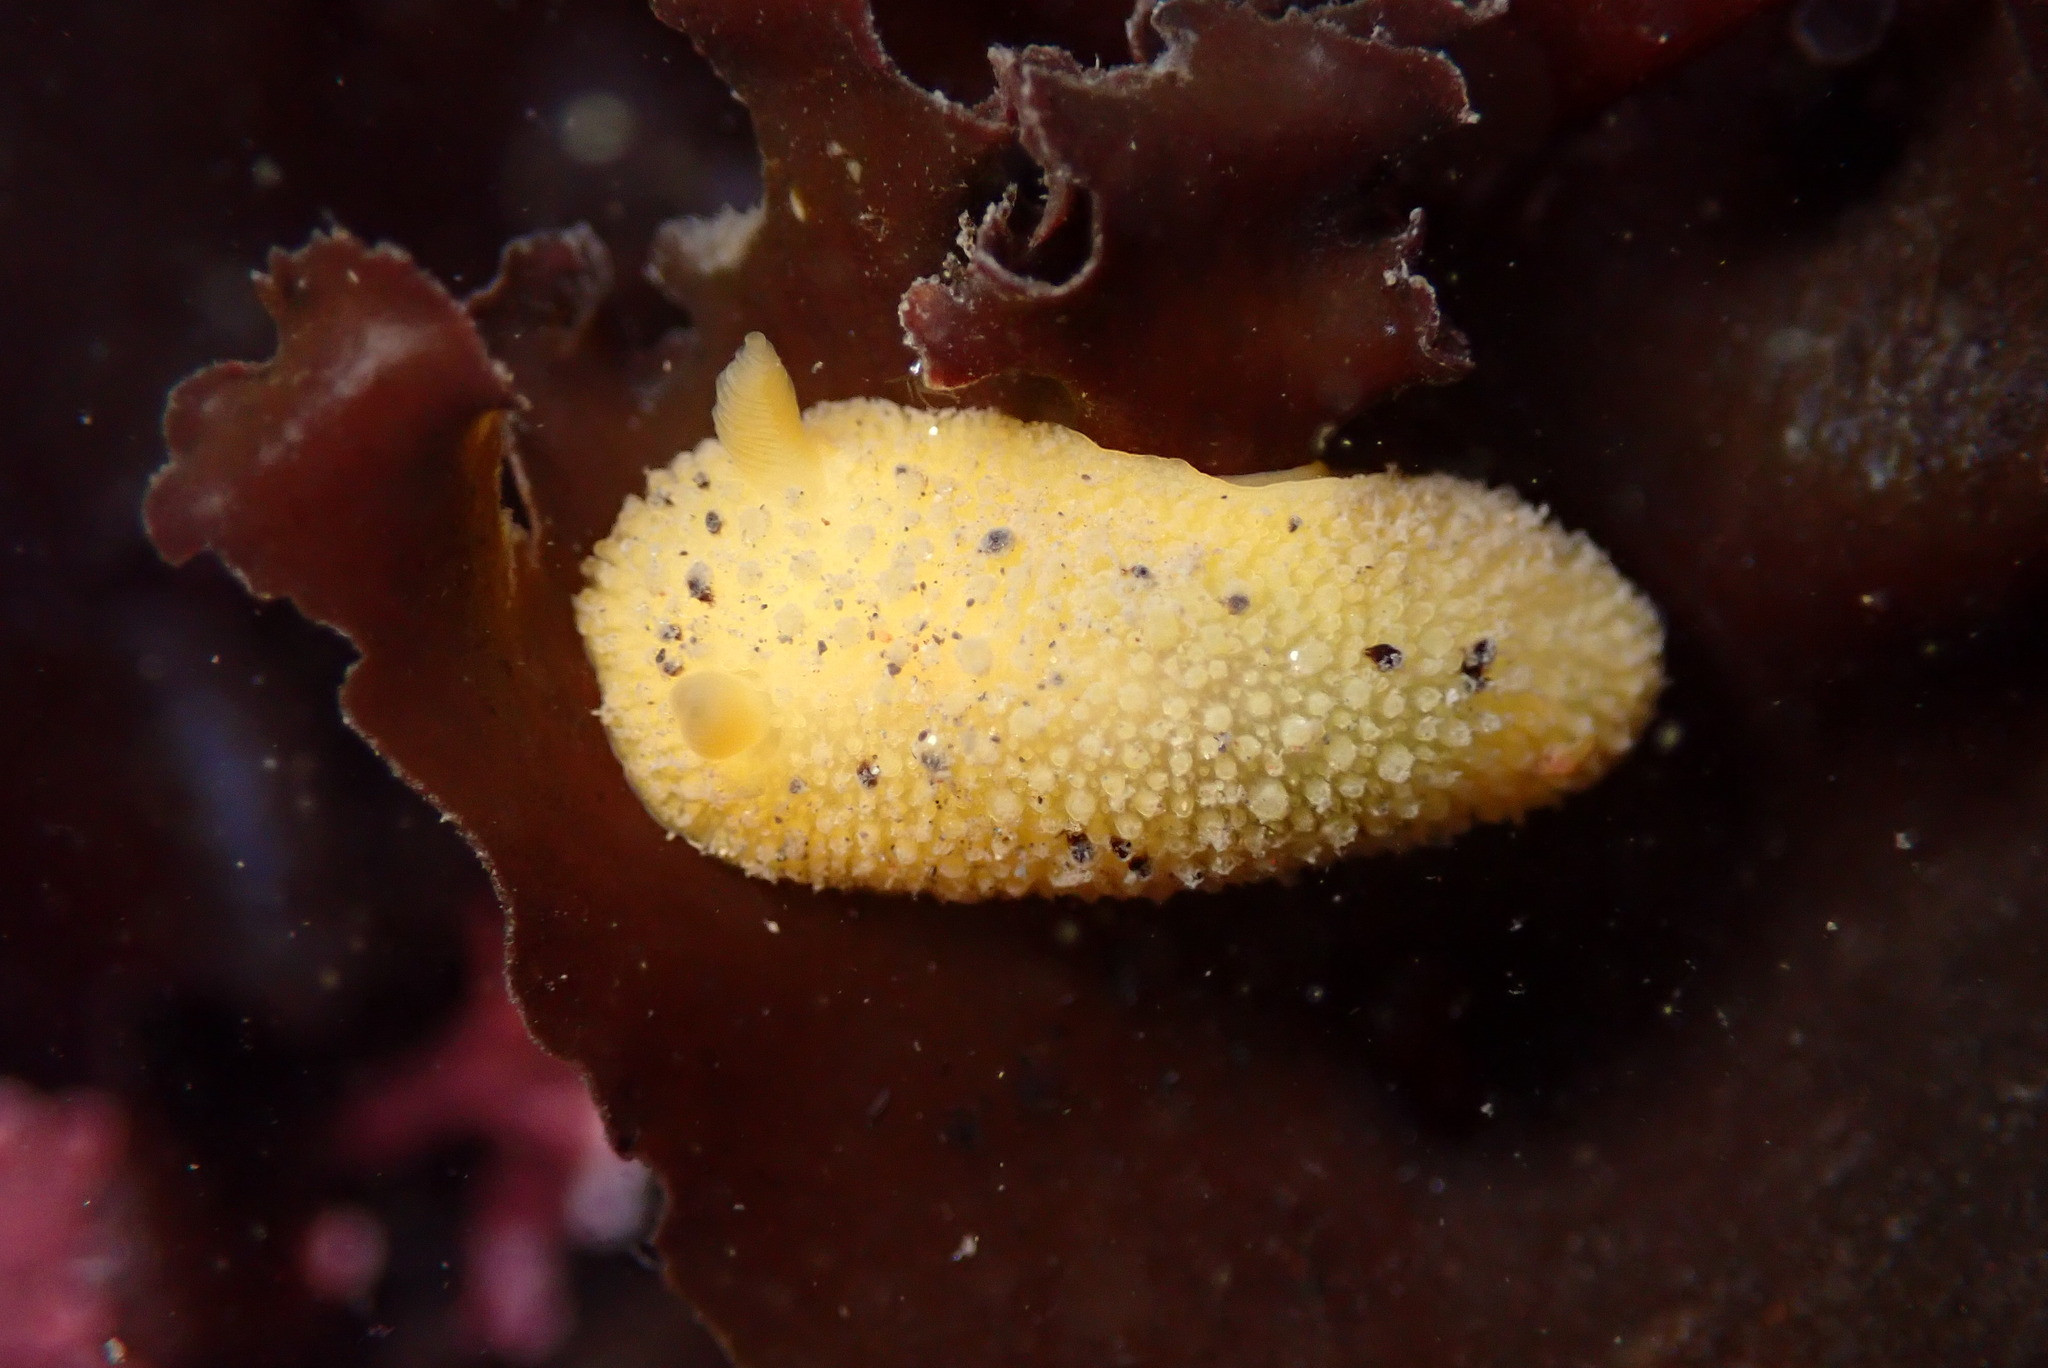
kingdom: Animalia
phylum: Mollusca
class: Gastropoda
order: Nudibranchia
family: Dorididae
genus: Doris
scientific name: Doris montereyensis
